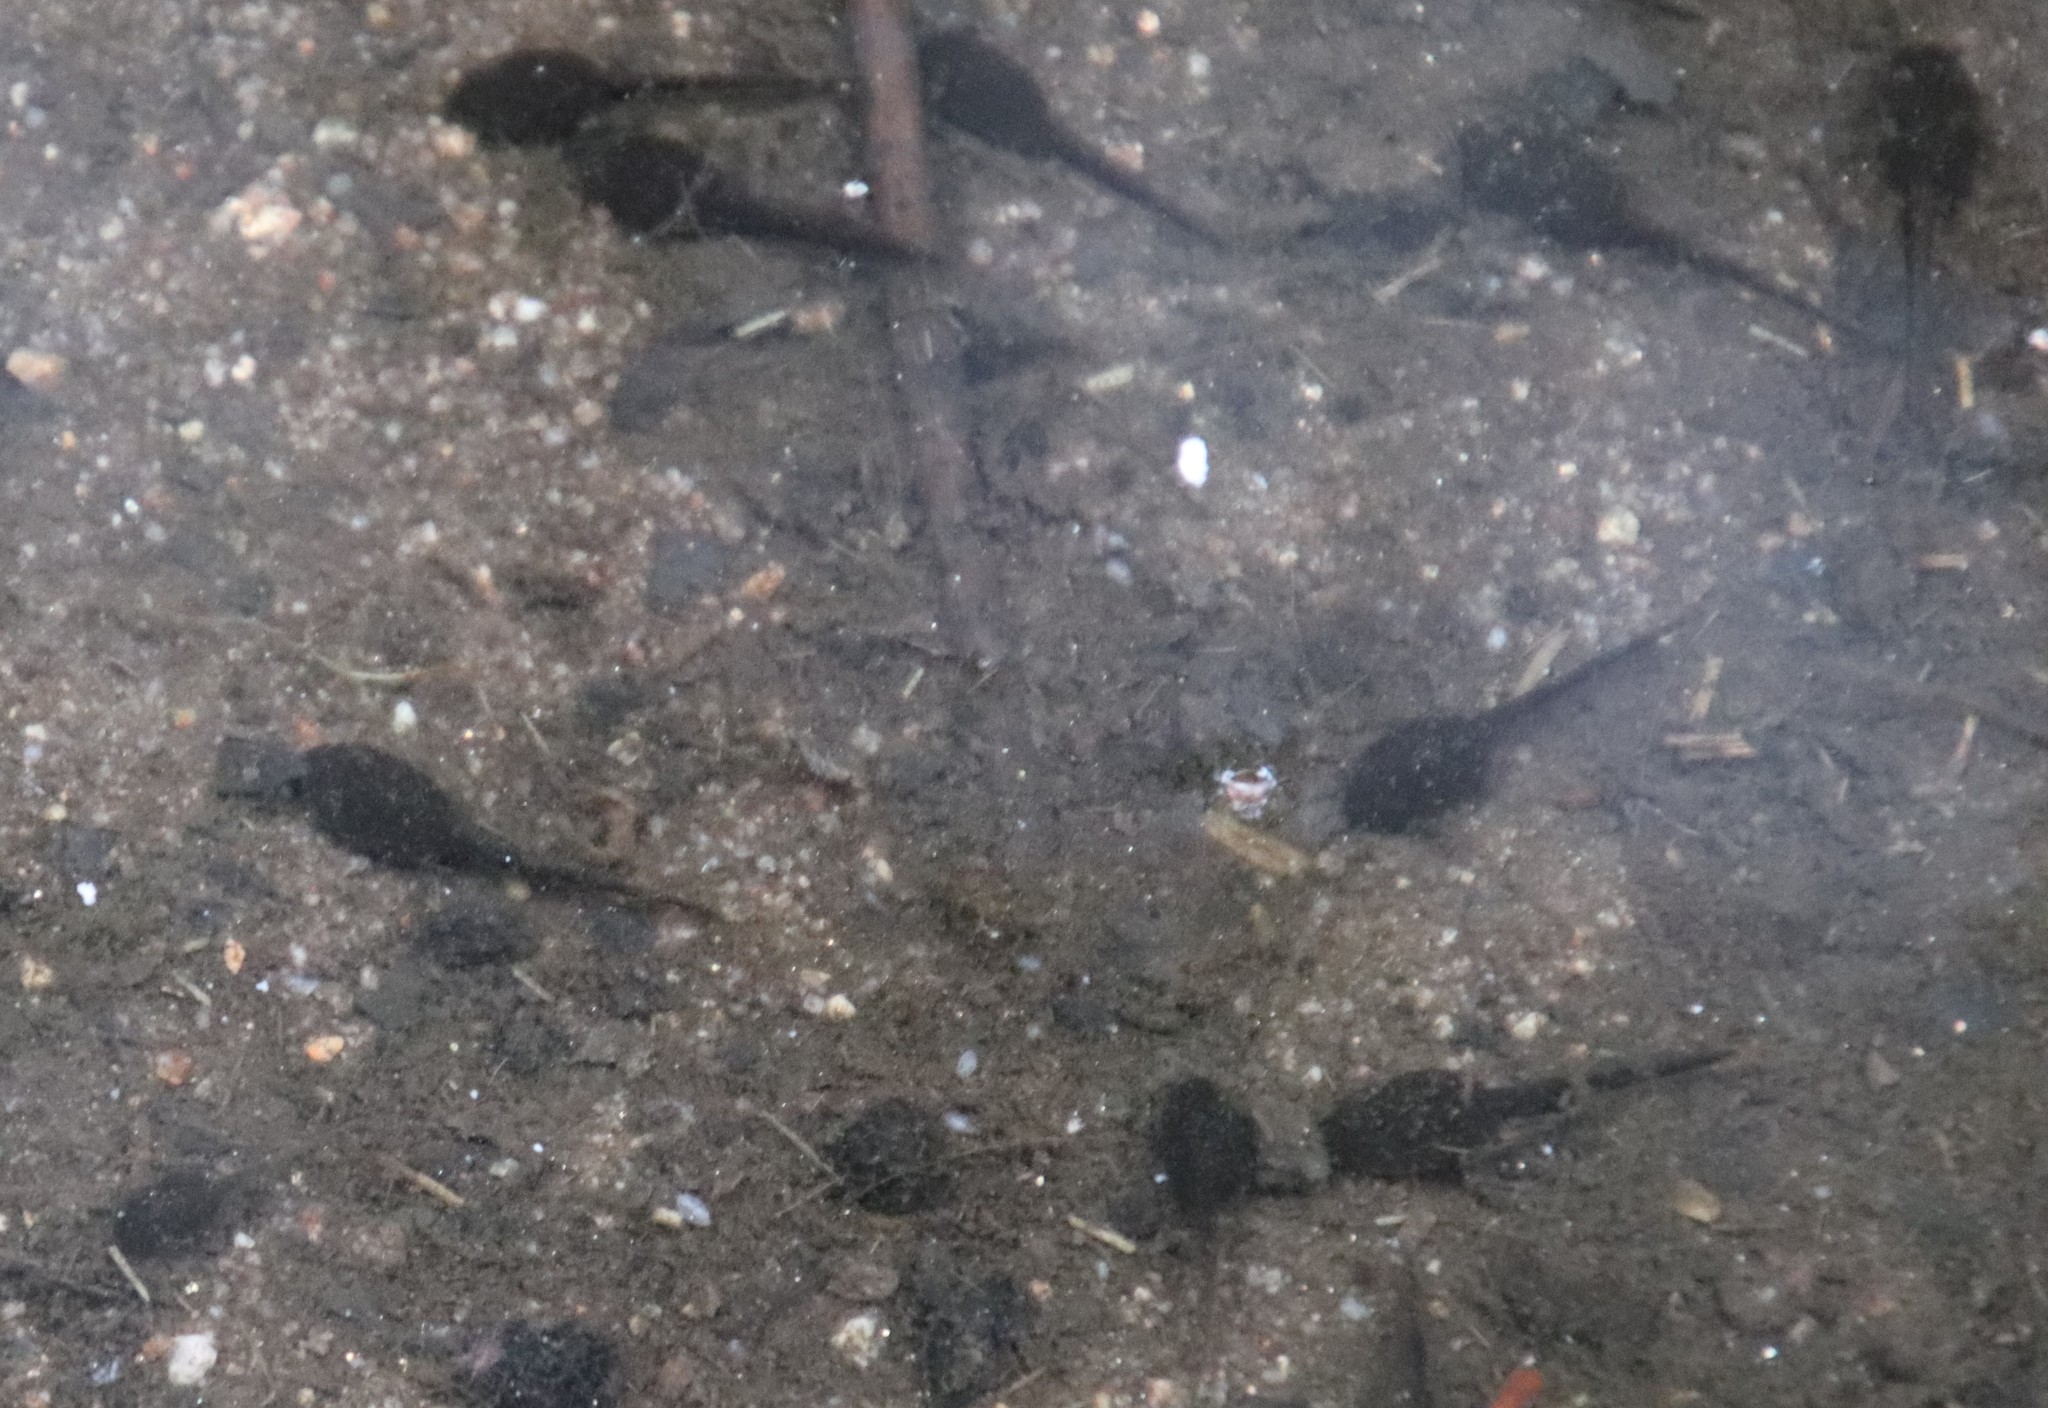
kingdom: Animalia
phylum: Chordata
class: Amphibia
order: Anura
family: Bufonidae
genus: Anaxyrus
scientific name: Anaxyrus boreas
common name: Western toad
